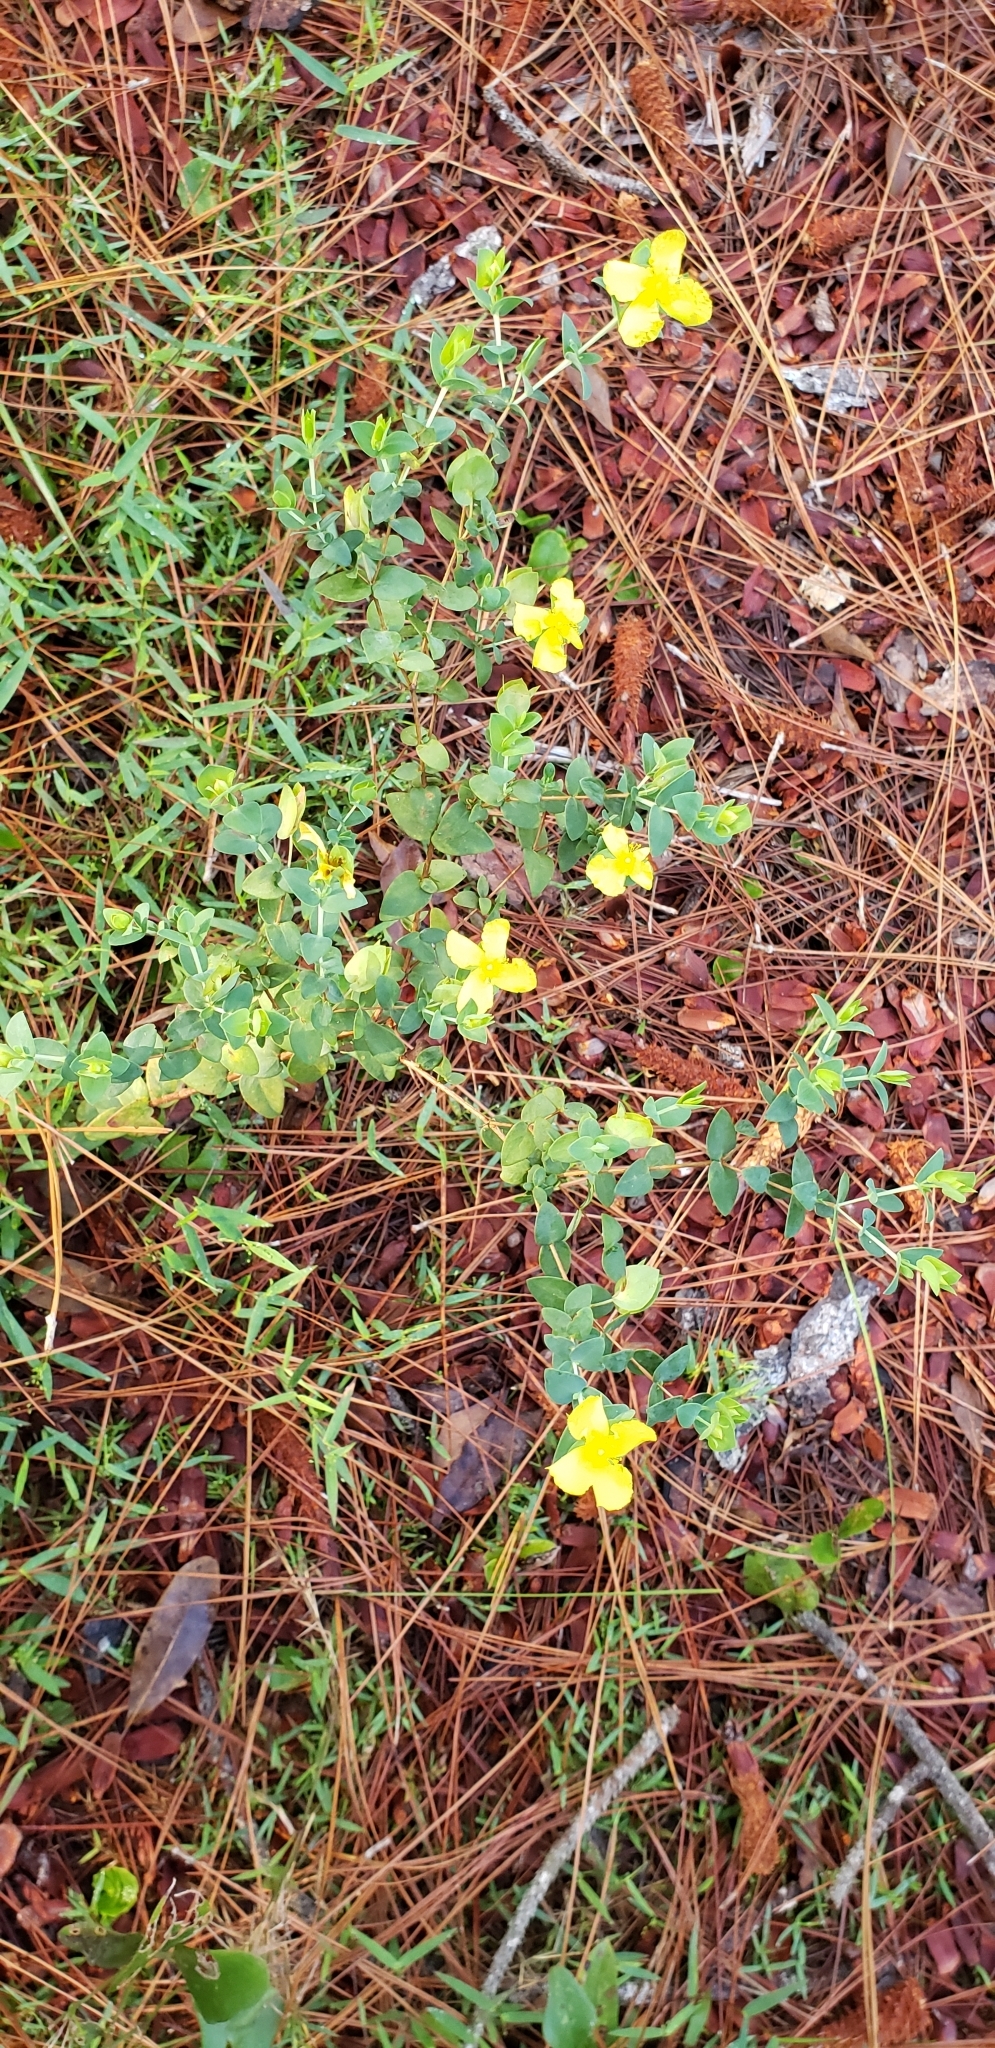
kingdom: Plantae
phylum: Tracheophyta
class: Magnoliopsida
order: Malpighiales
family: Hypericaceae
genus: Hypericum
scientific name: Hypericum tetrapetalum
